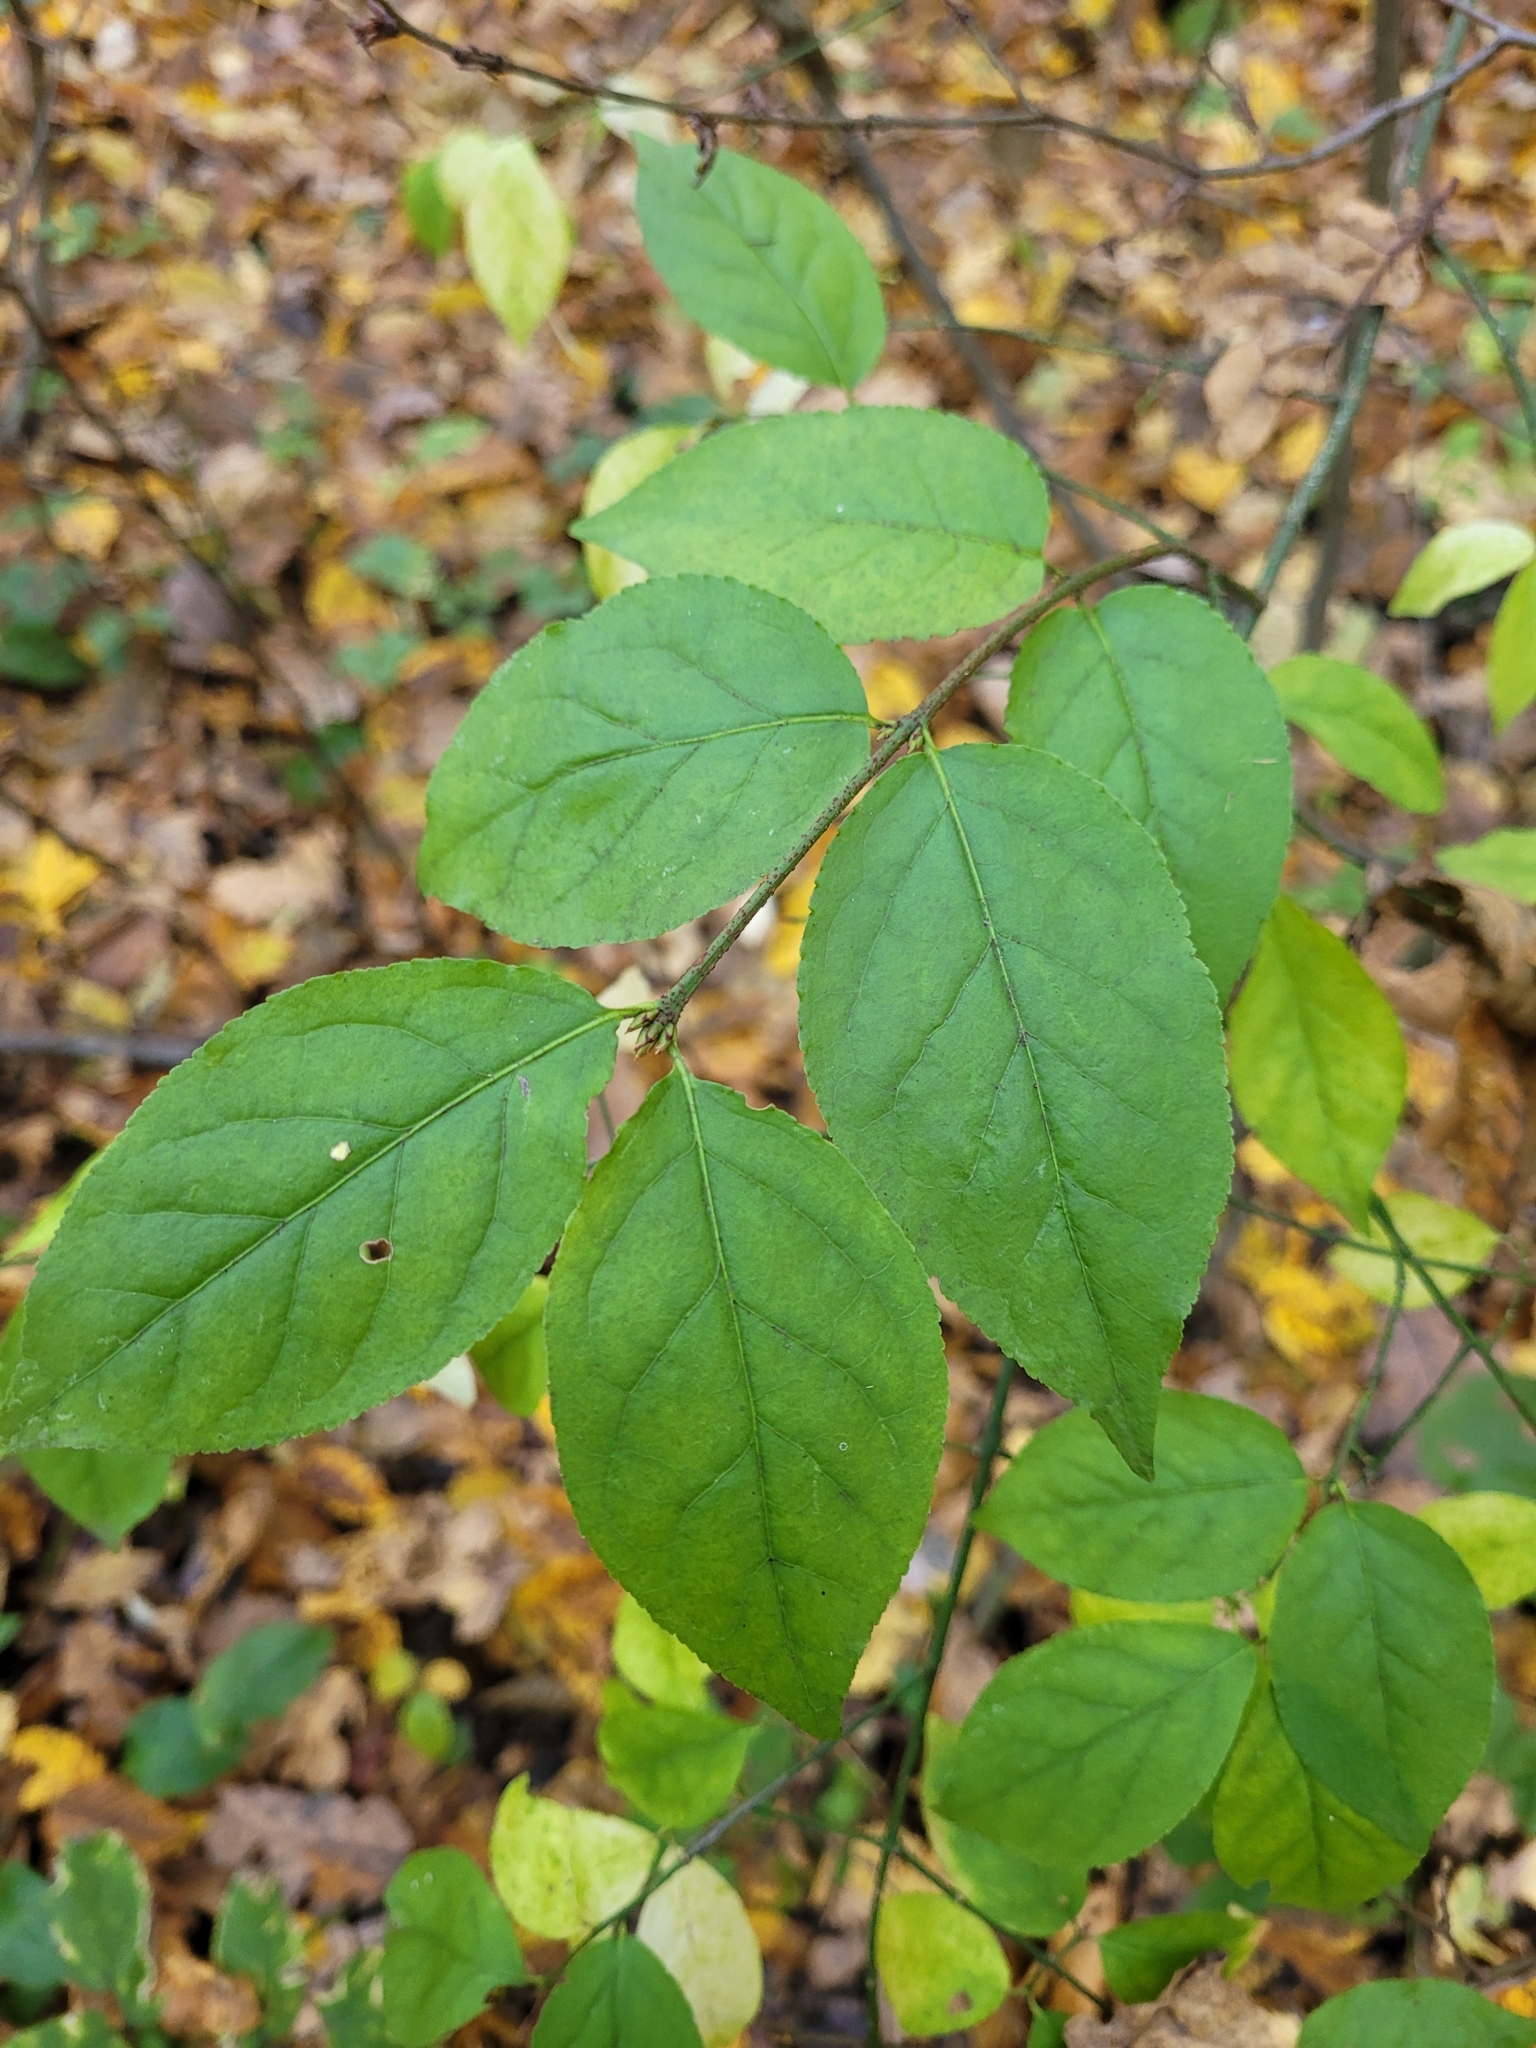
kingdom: Plantae
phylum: Tracheophyta
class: Magnoliopsida
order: Celastrales
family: Celastraceae
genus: Euonymus
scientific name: Euonymus verrucosus
